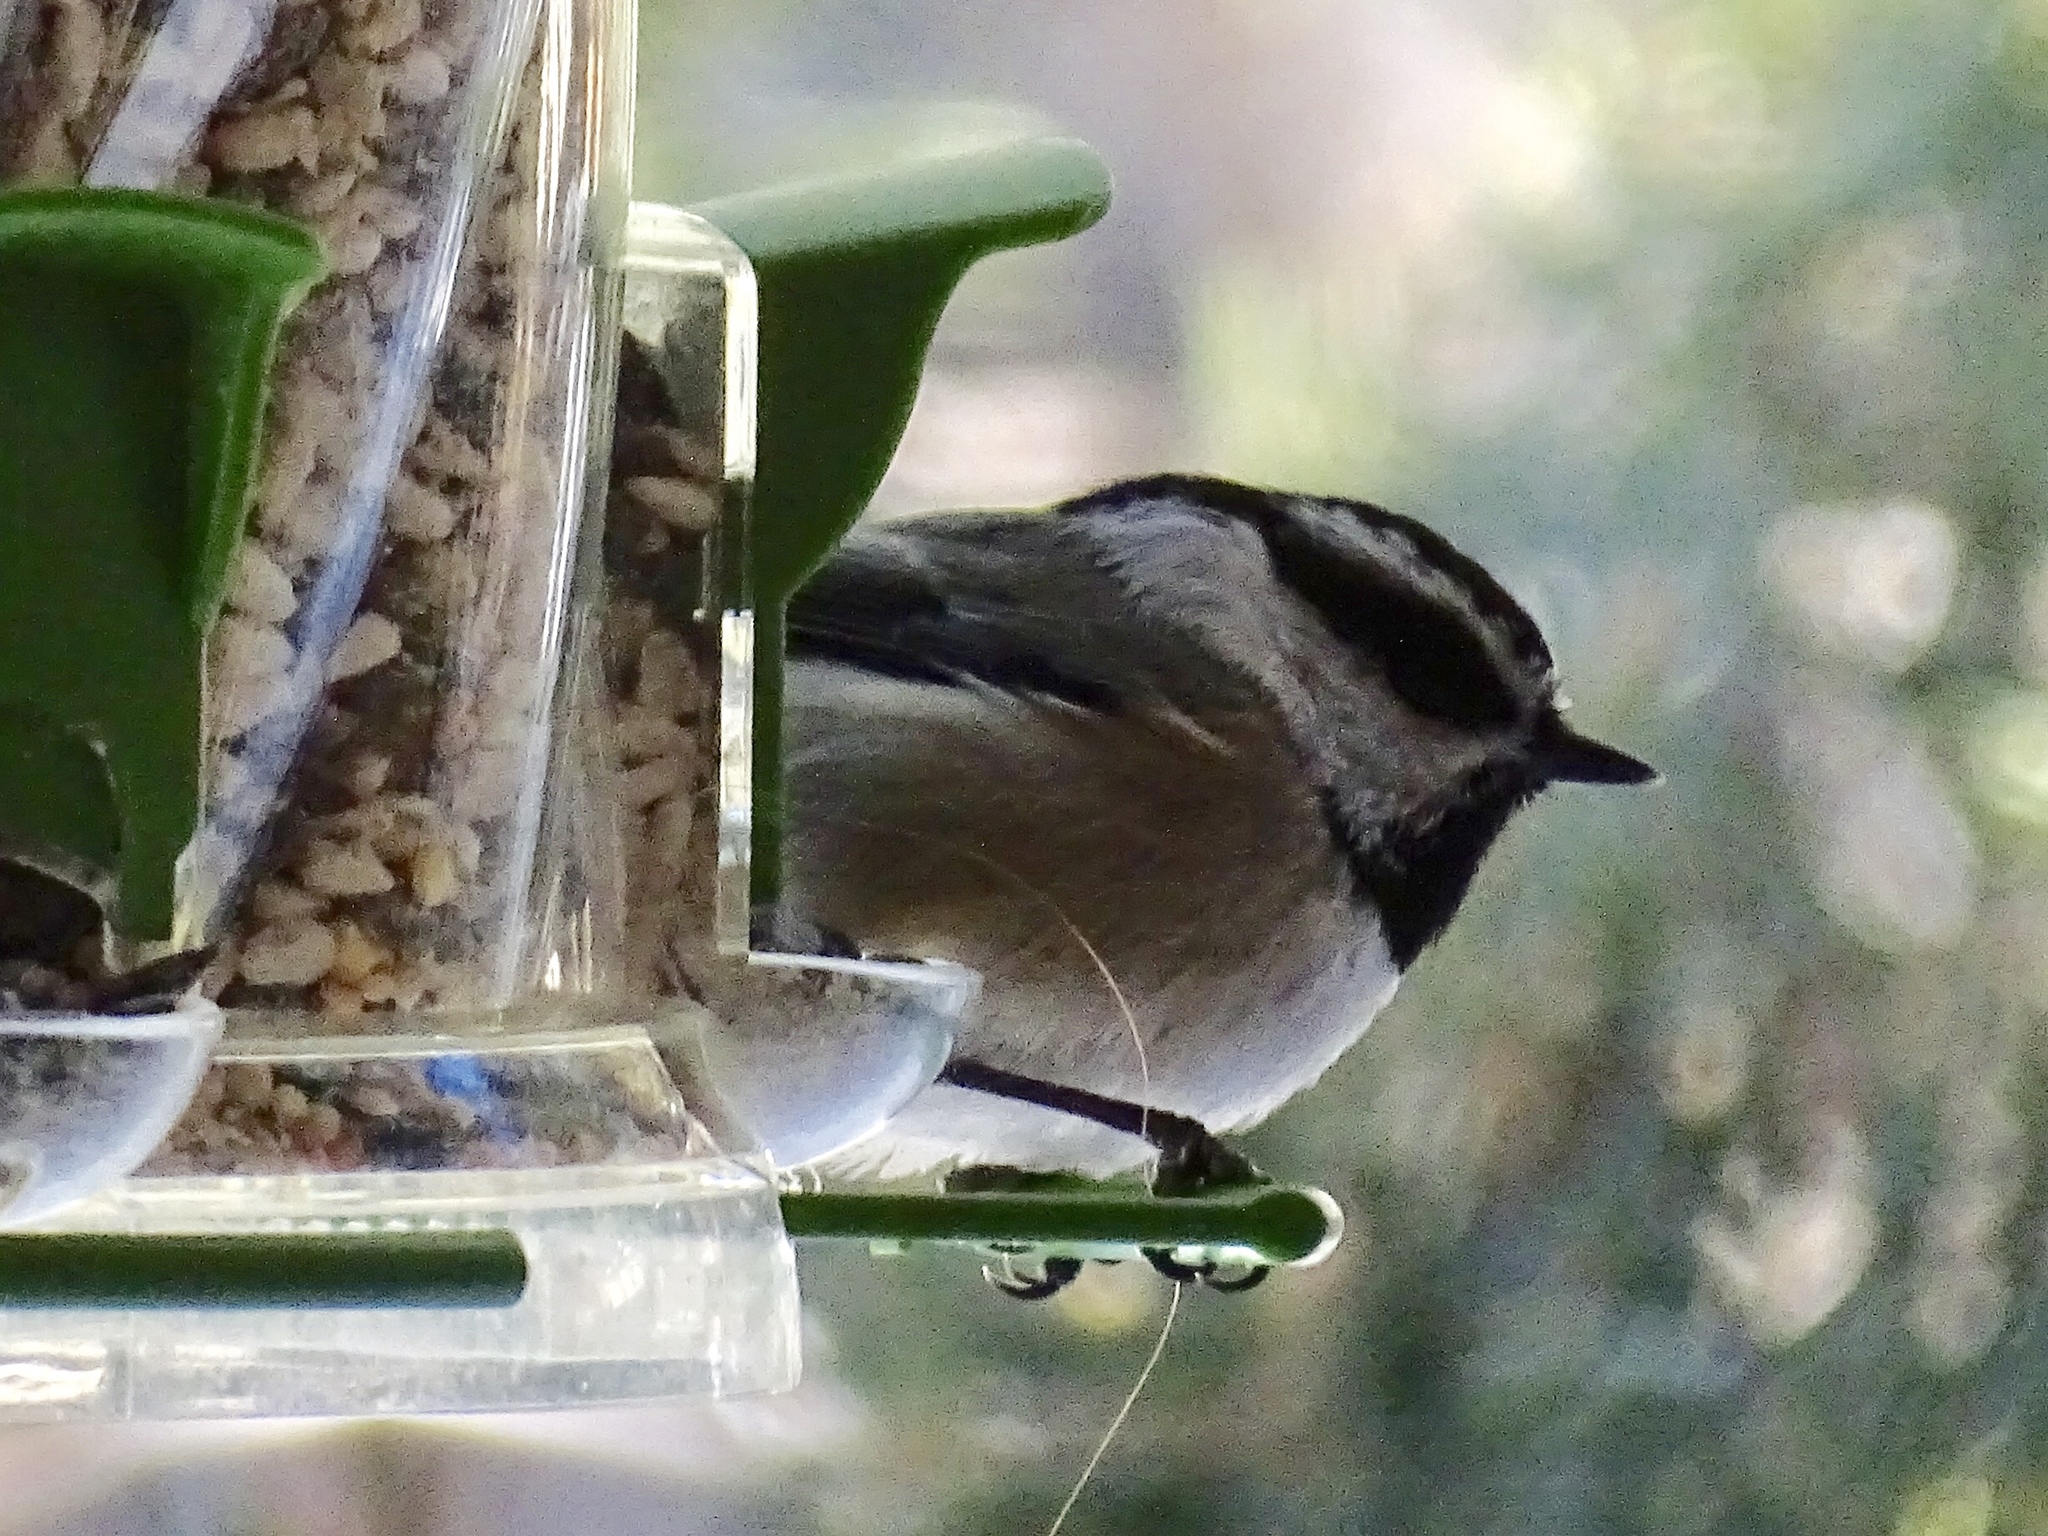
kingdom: Animalia
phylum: Chordata
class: Aves
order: Passeriformes
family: Paridae
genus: Poecile
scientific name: Poecile gambeli
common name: Mountain chickadee
